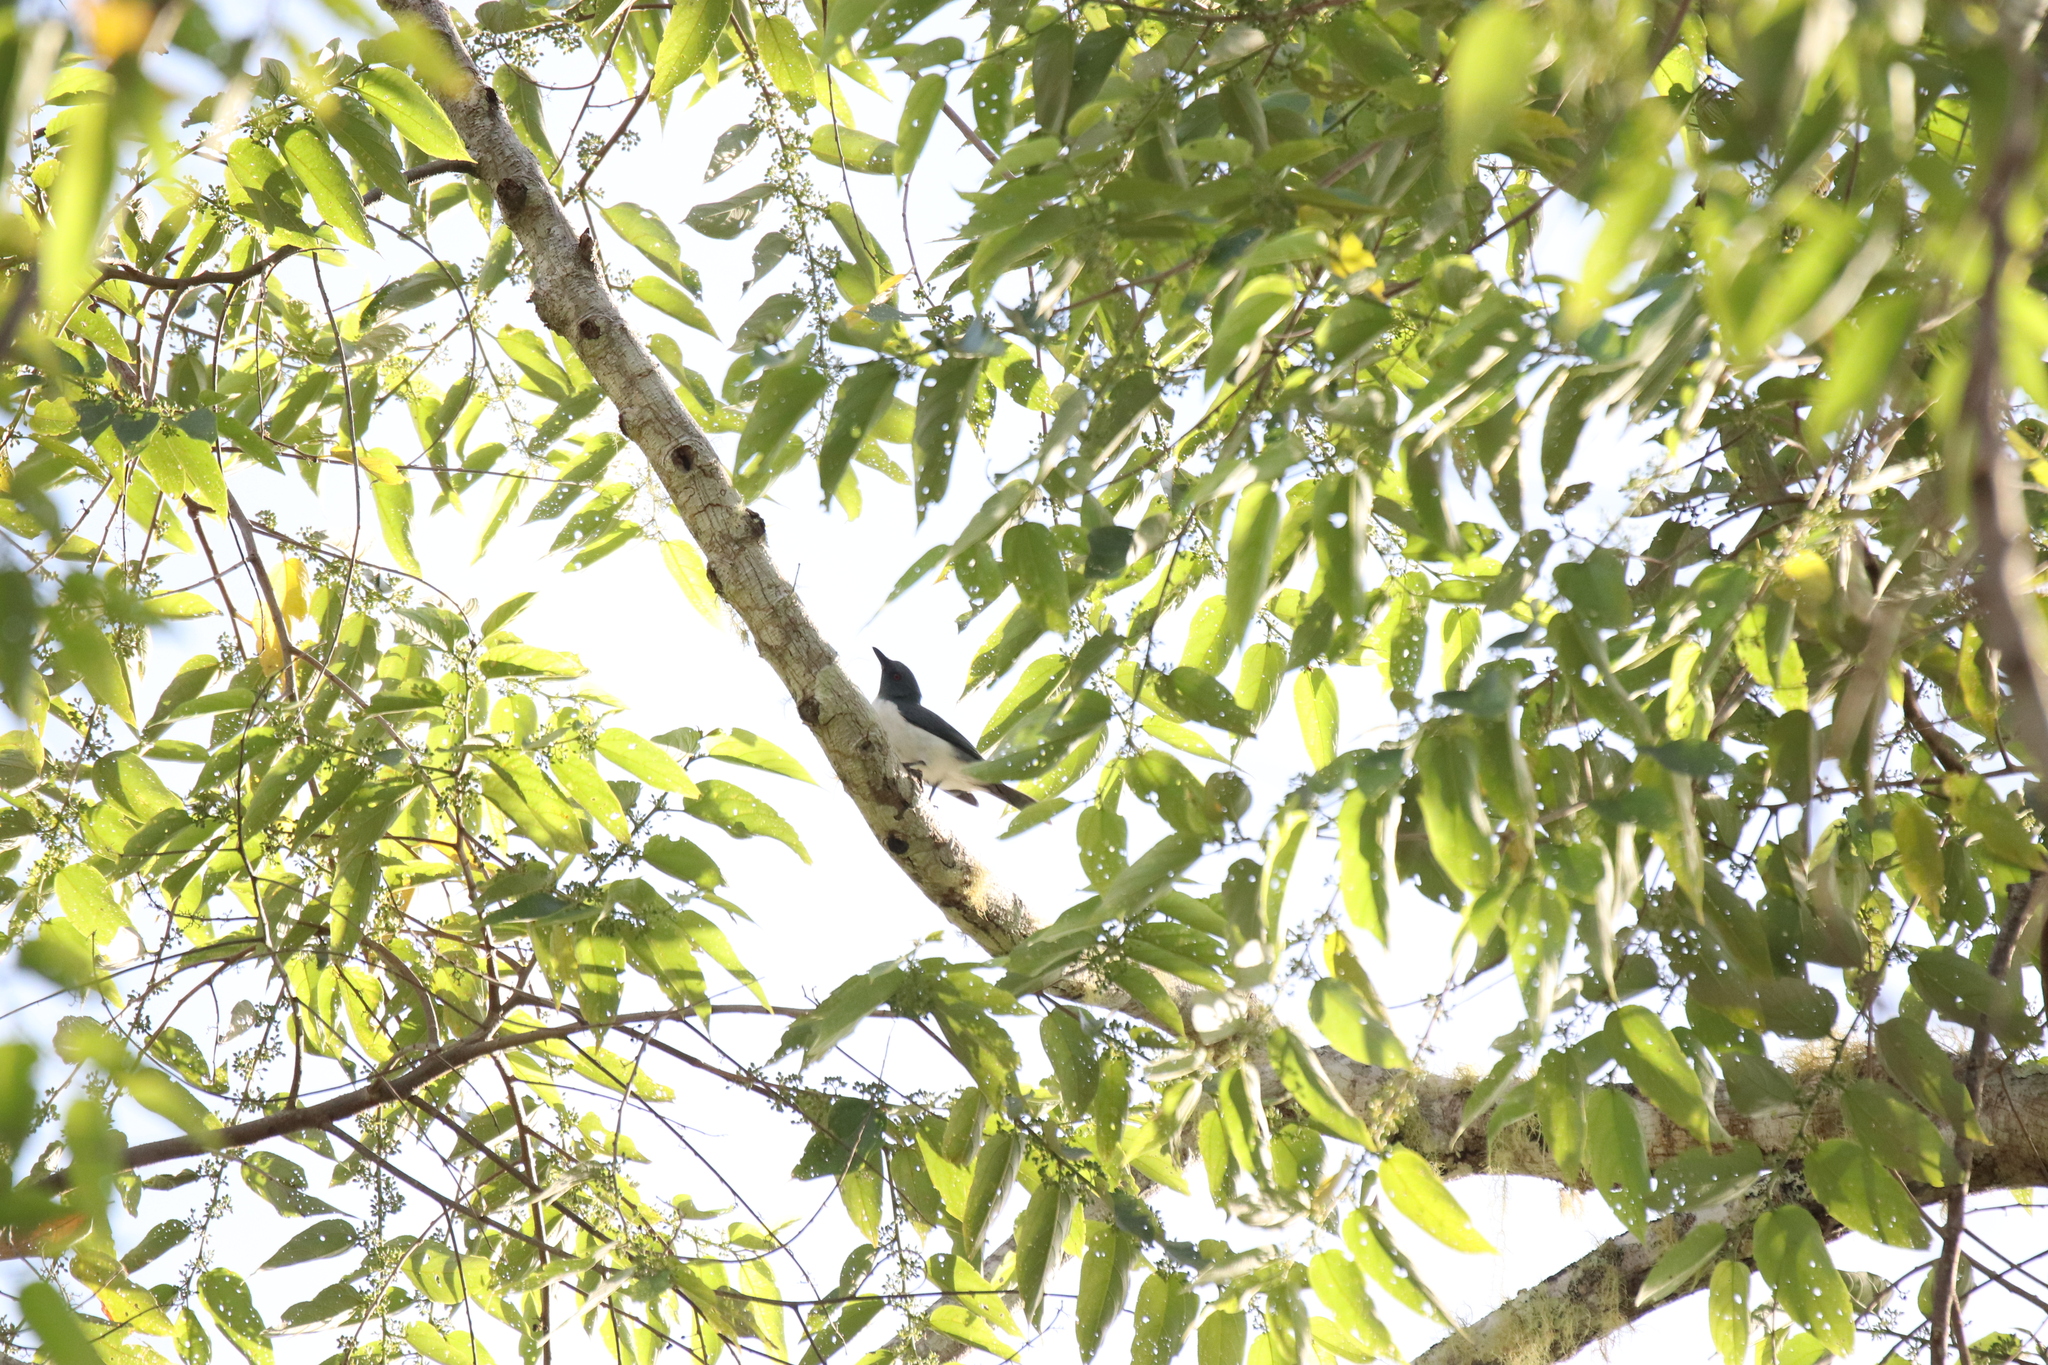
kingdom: Animalia
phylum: Chordata
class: Aves
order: Passeriformes
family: Campephagidae
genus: Celebesia
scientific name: Celebesia abbotti
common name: Pygmy cuckooshrike
